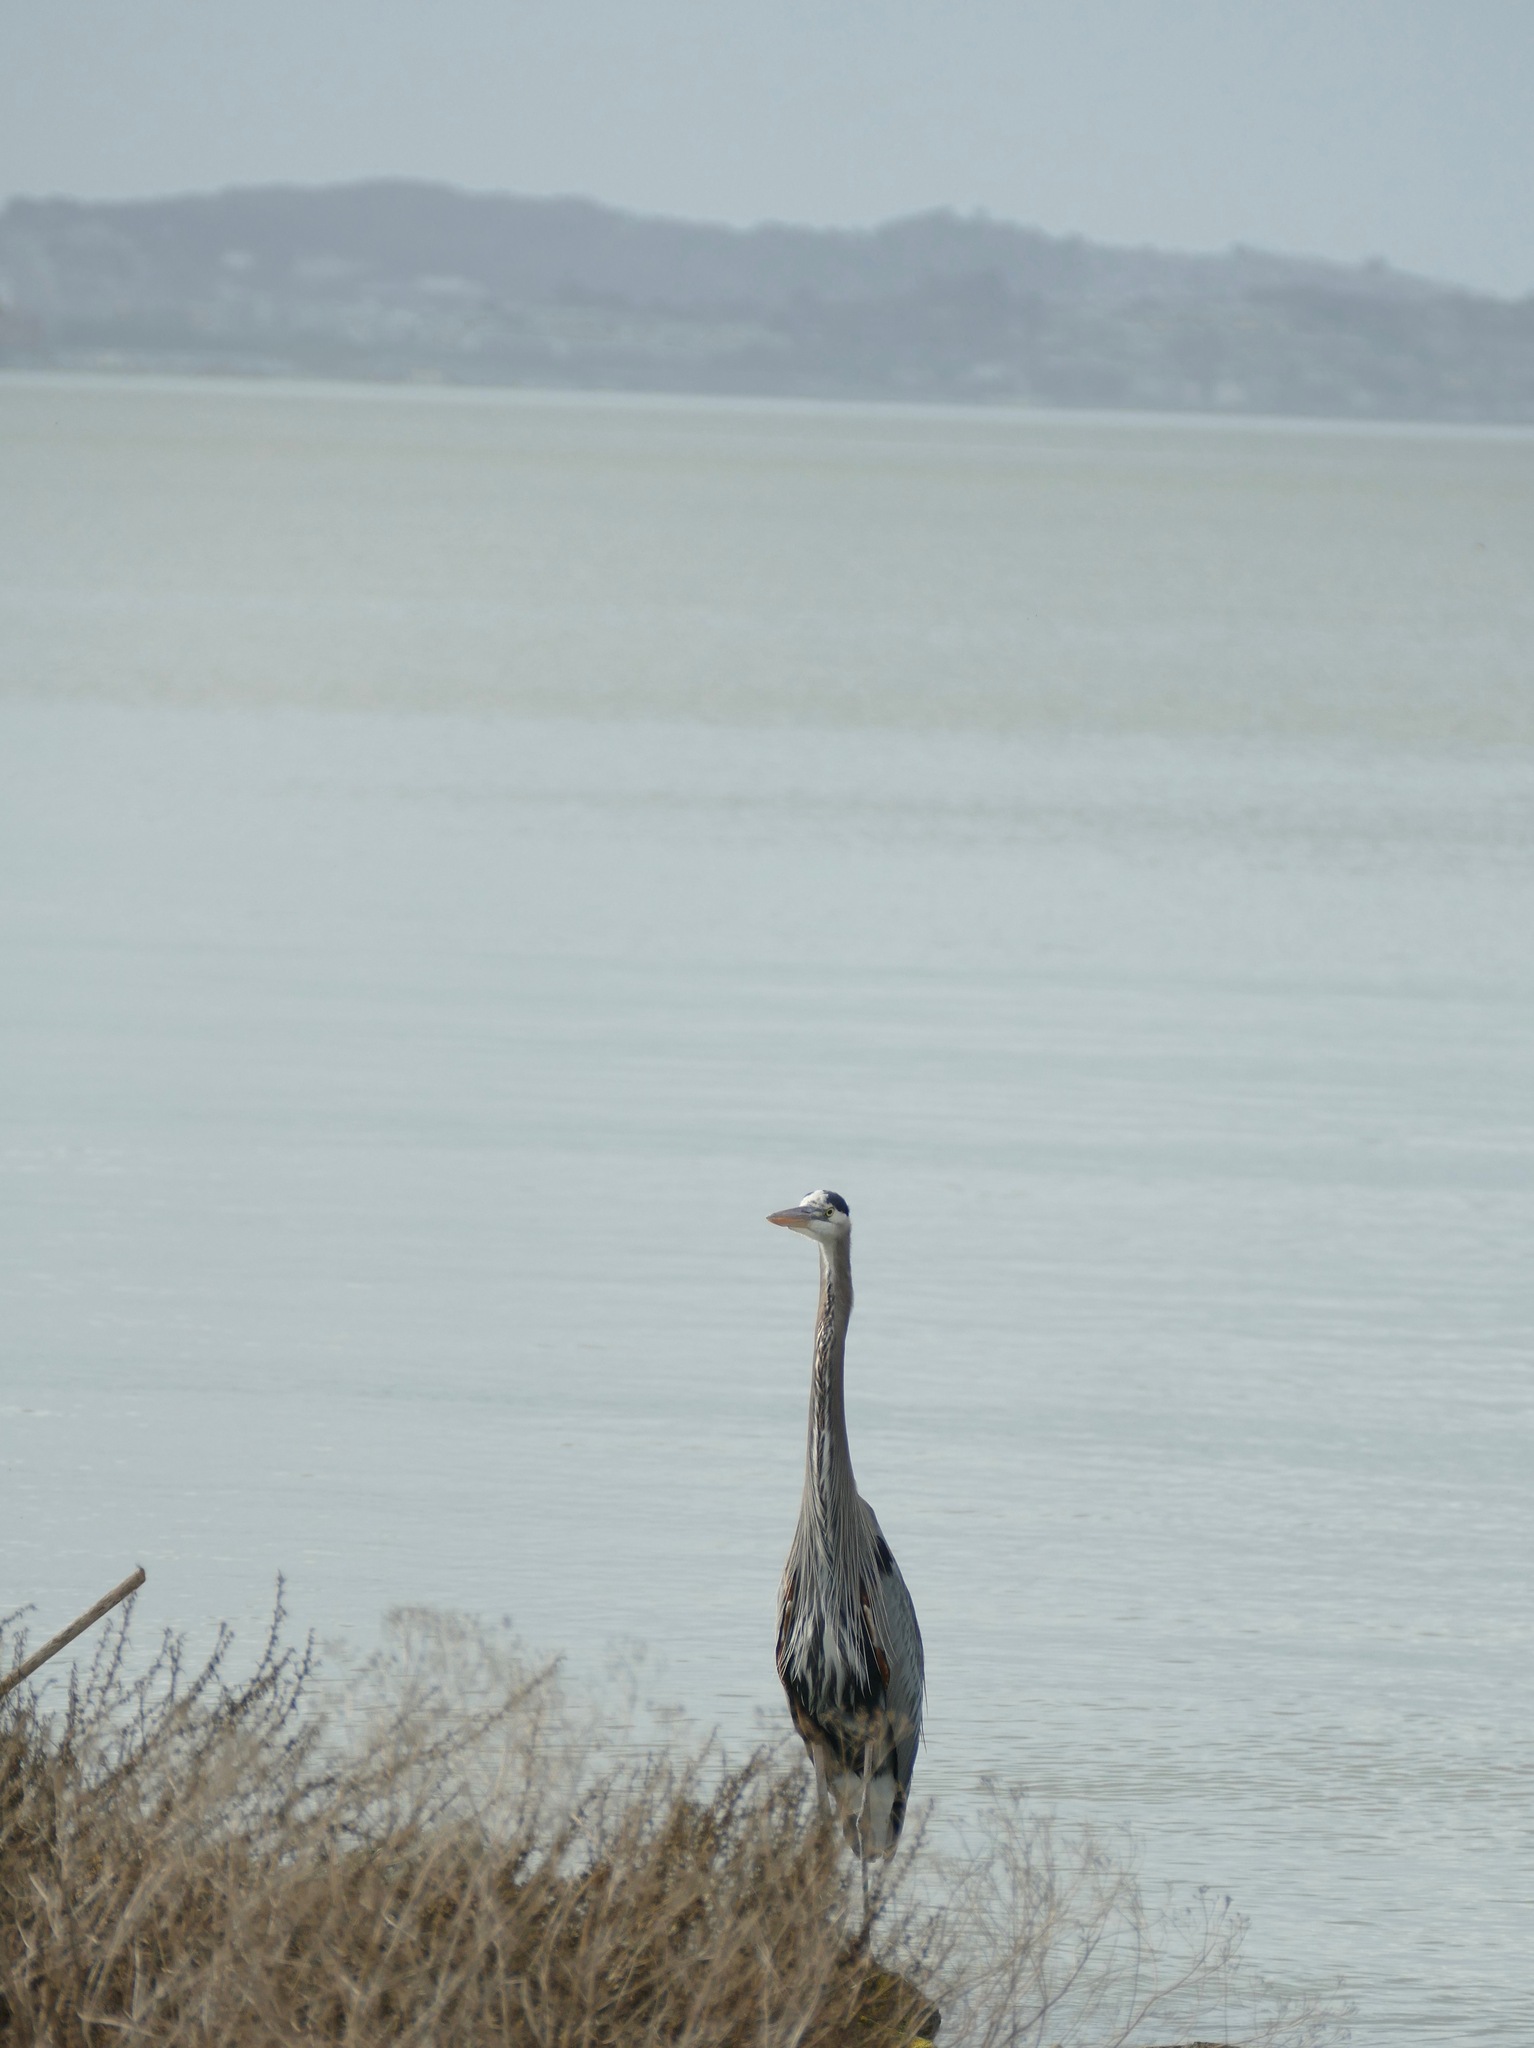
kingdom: Animalia
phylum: Chordata
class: Aves
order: Pelecaniformes
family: Ardeidae
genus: Ardea
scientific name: Ardea herodias
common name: Great blue heron
